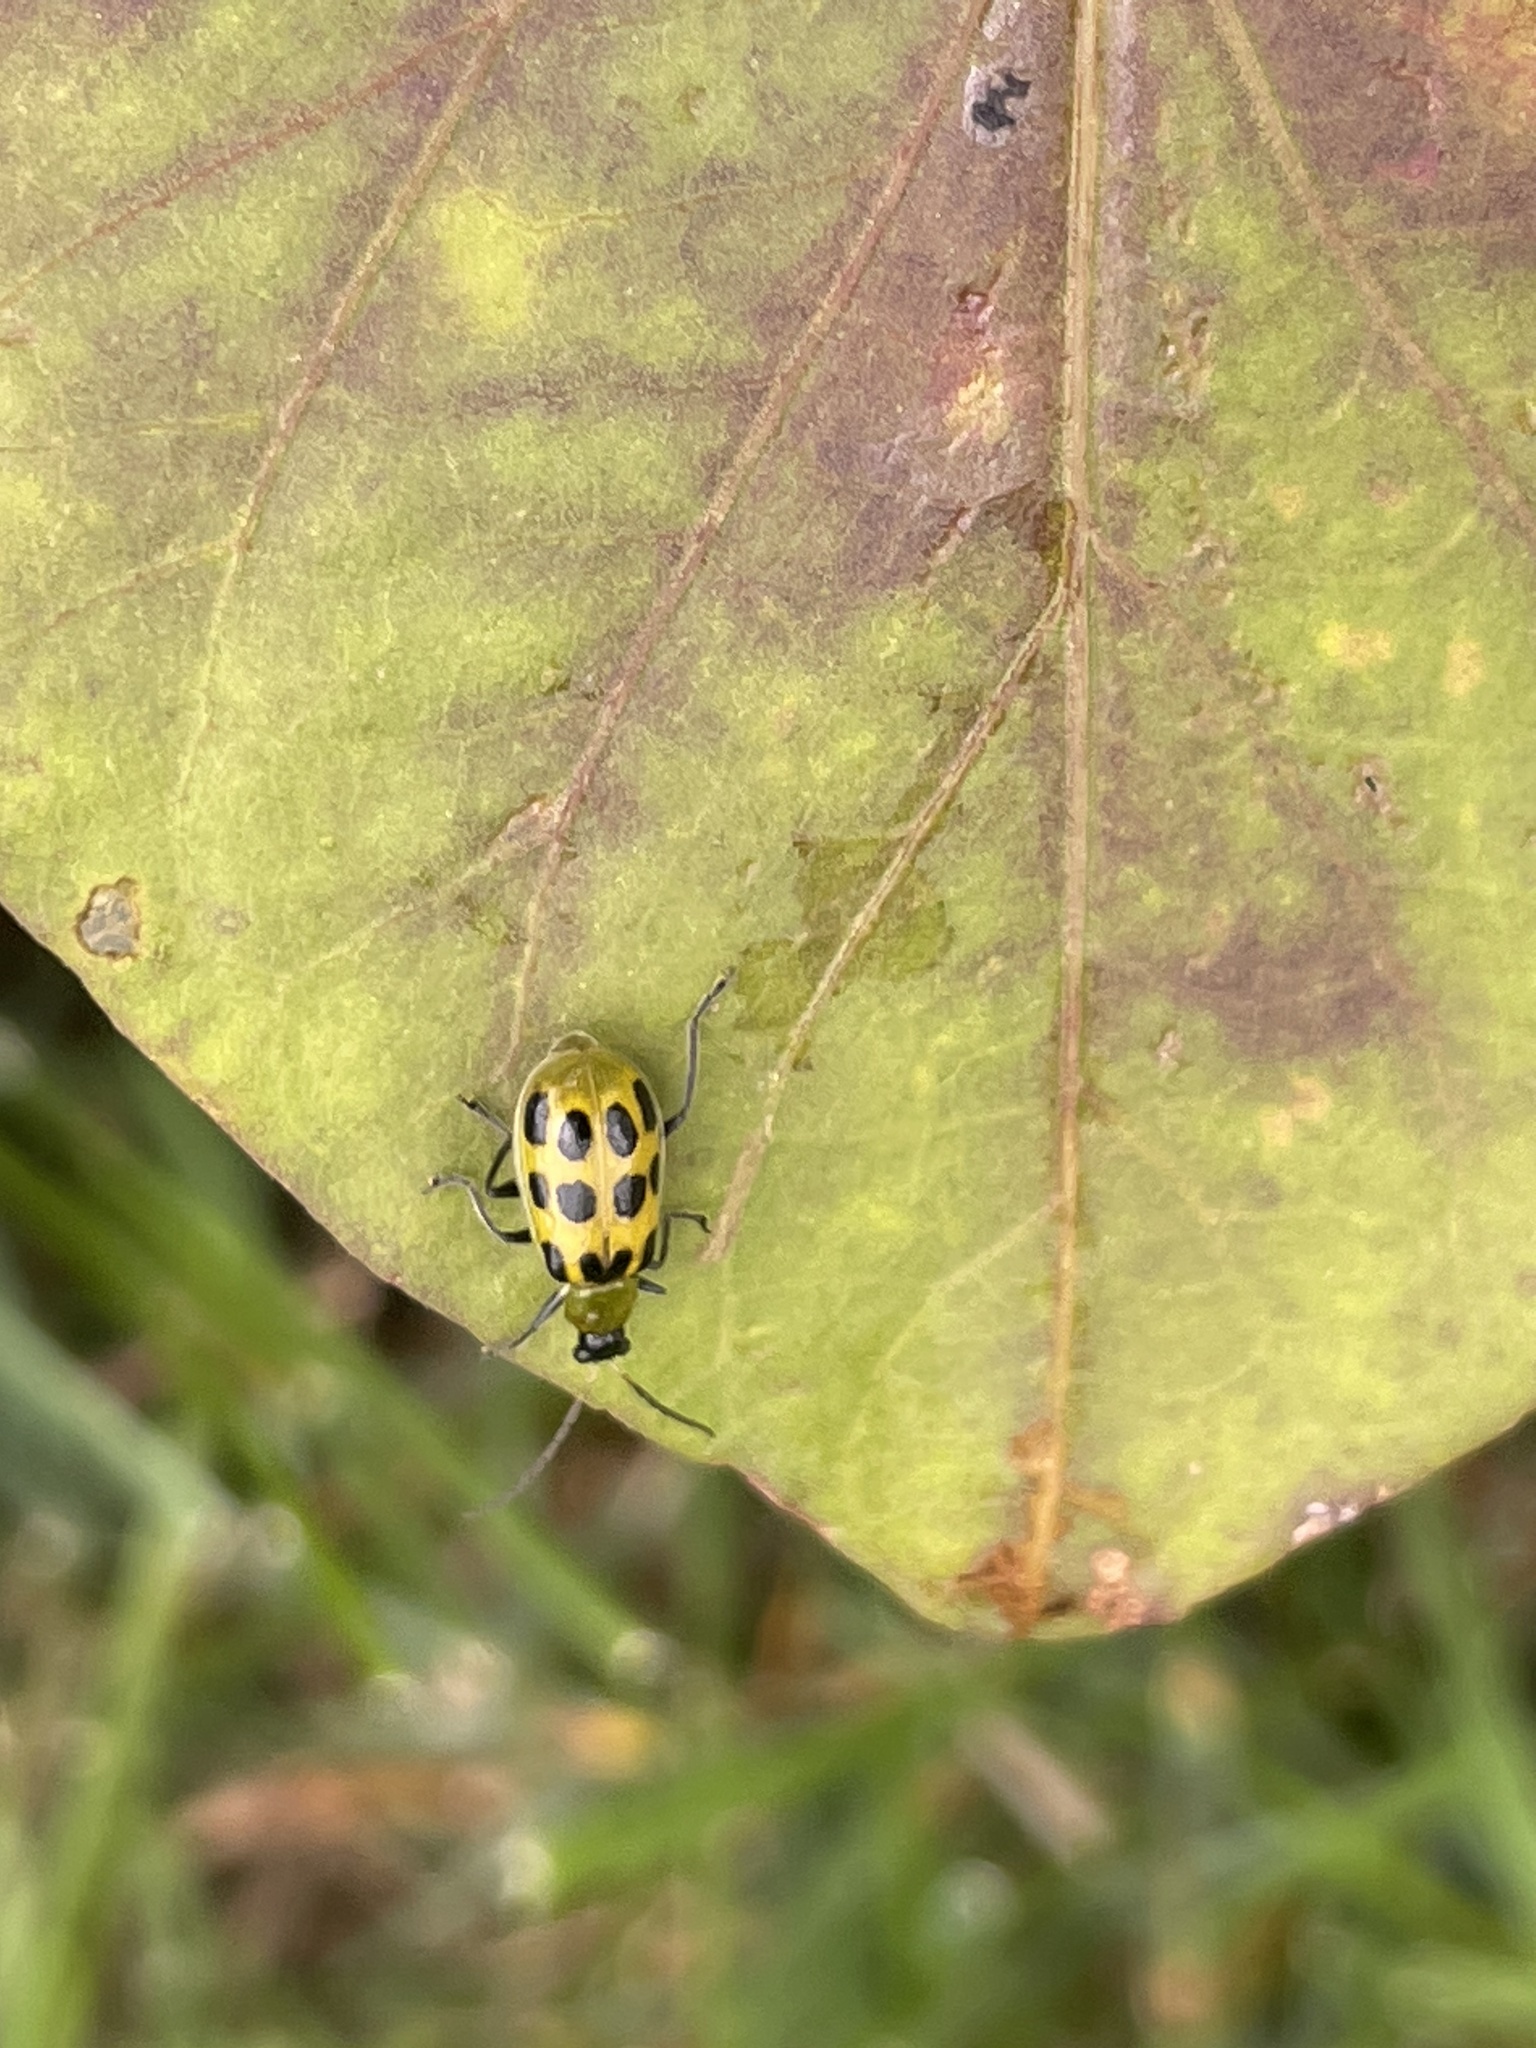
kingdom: Animalia
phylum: Arthropoda
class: Insecta
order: Coleoptera
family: Chrysomelidae
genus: Diabrotica
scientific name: Diabrotica undecimpunctata
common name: Spotted cucumber beetle
